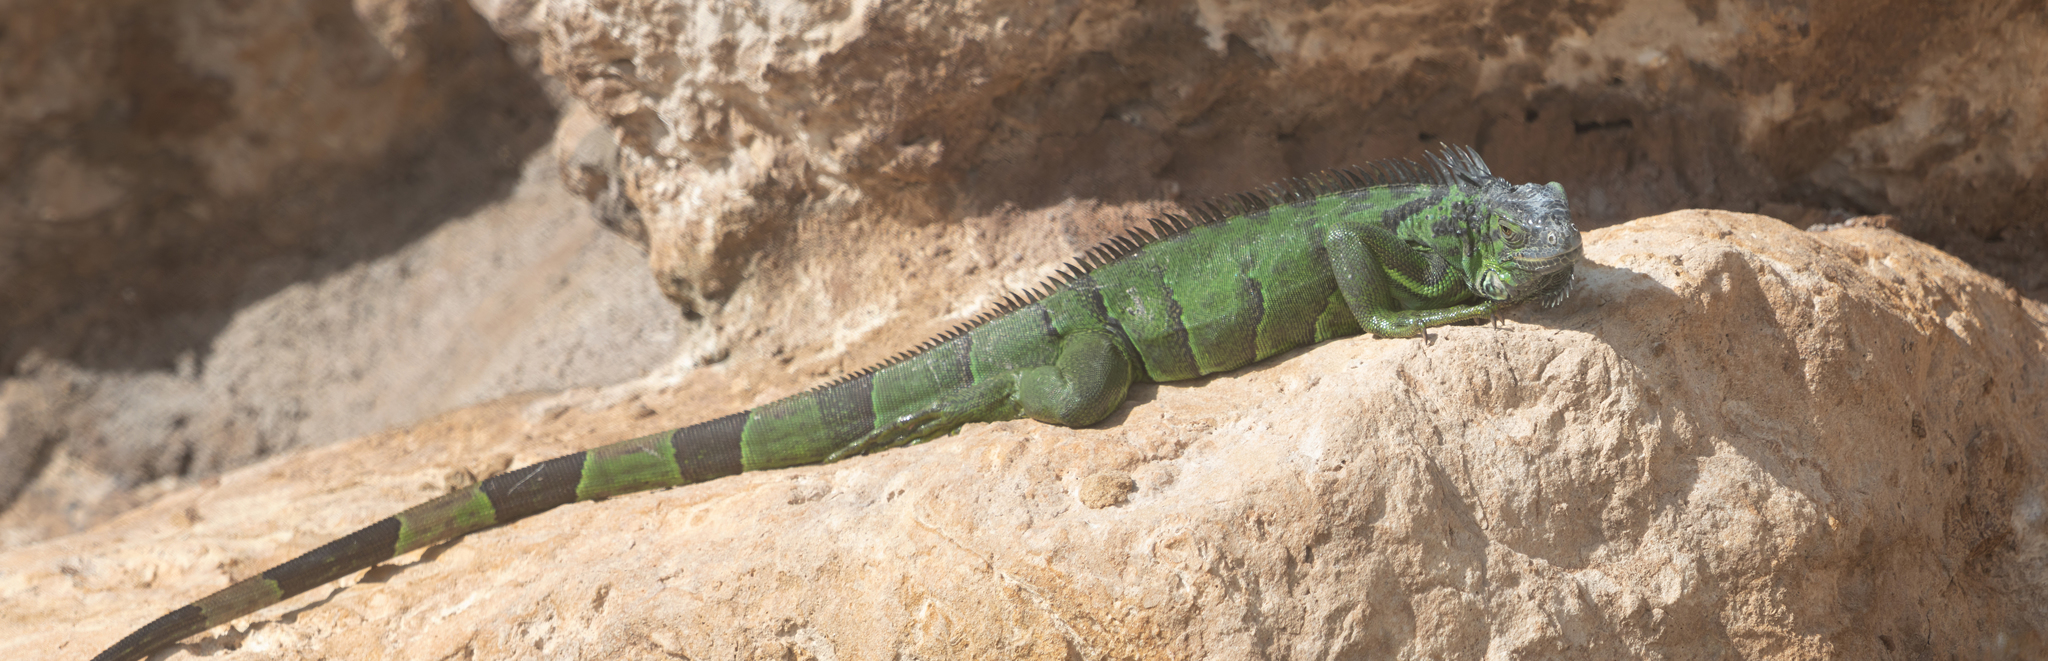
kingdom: Animalia
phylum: Chordata
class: Squamata
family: Iguanidae
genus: Iguana
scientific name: Iguana iguana
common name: Green iguana
